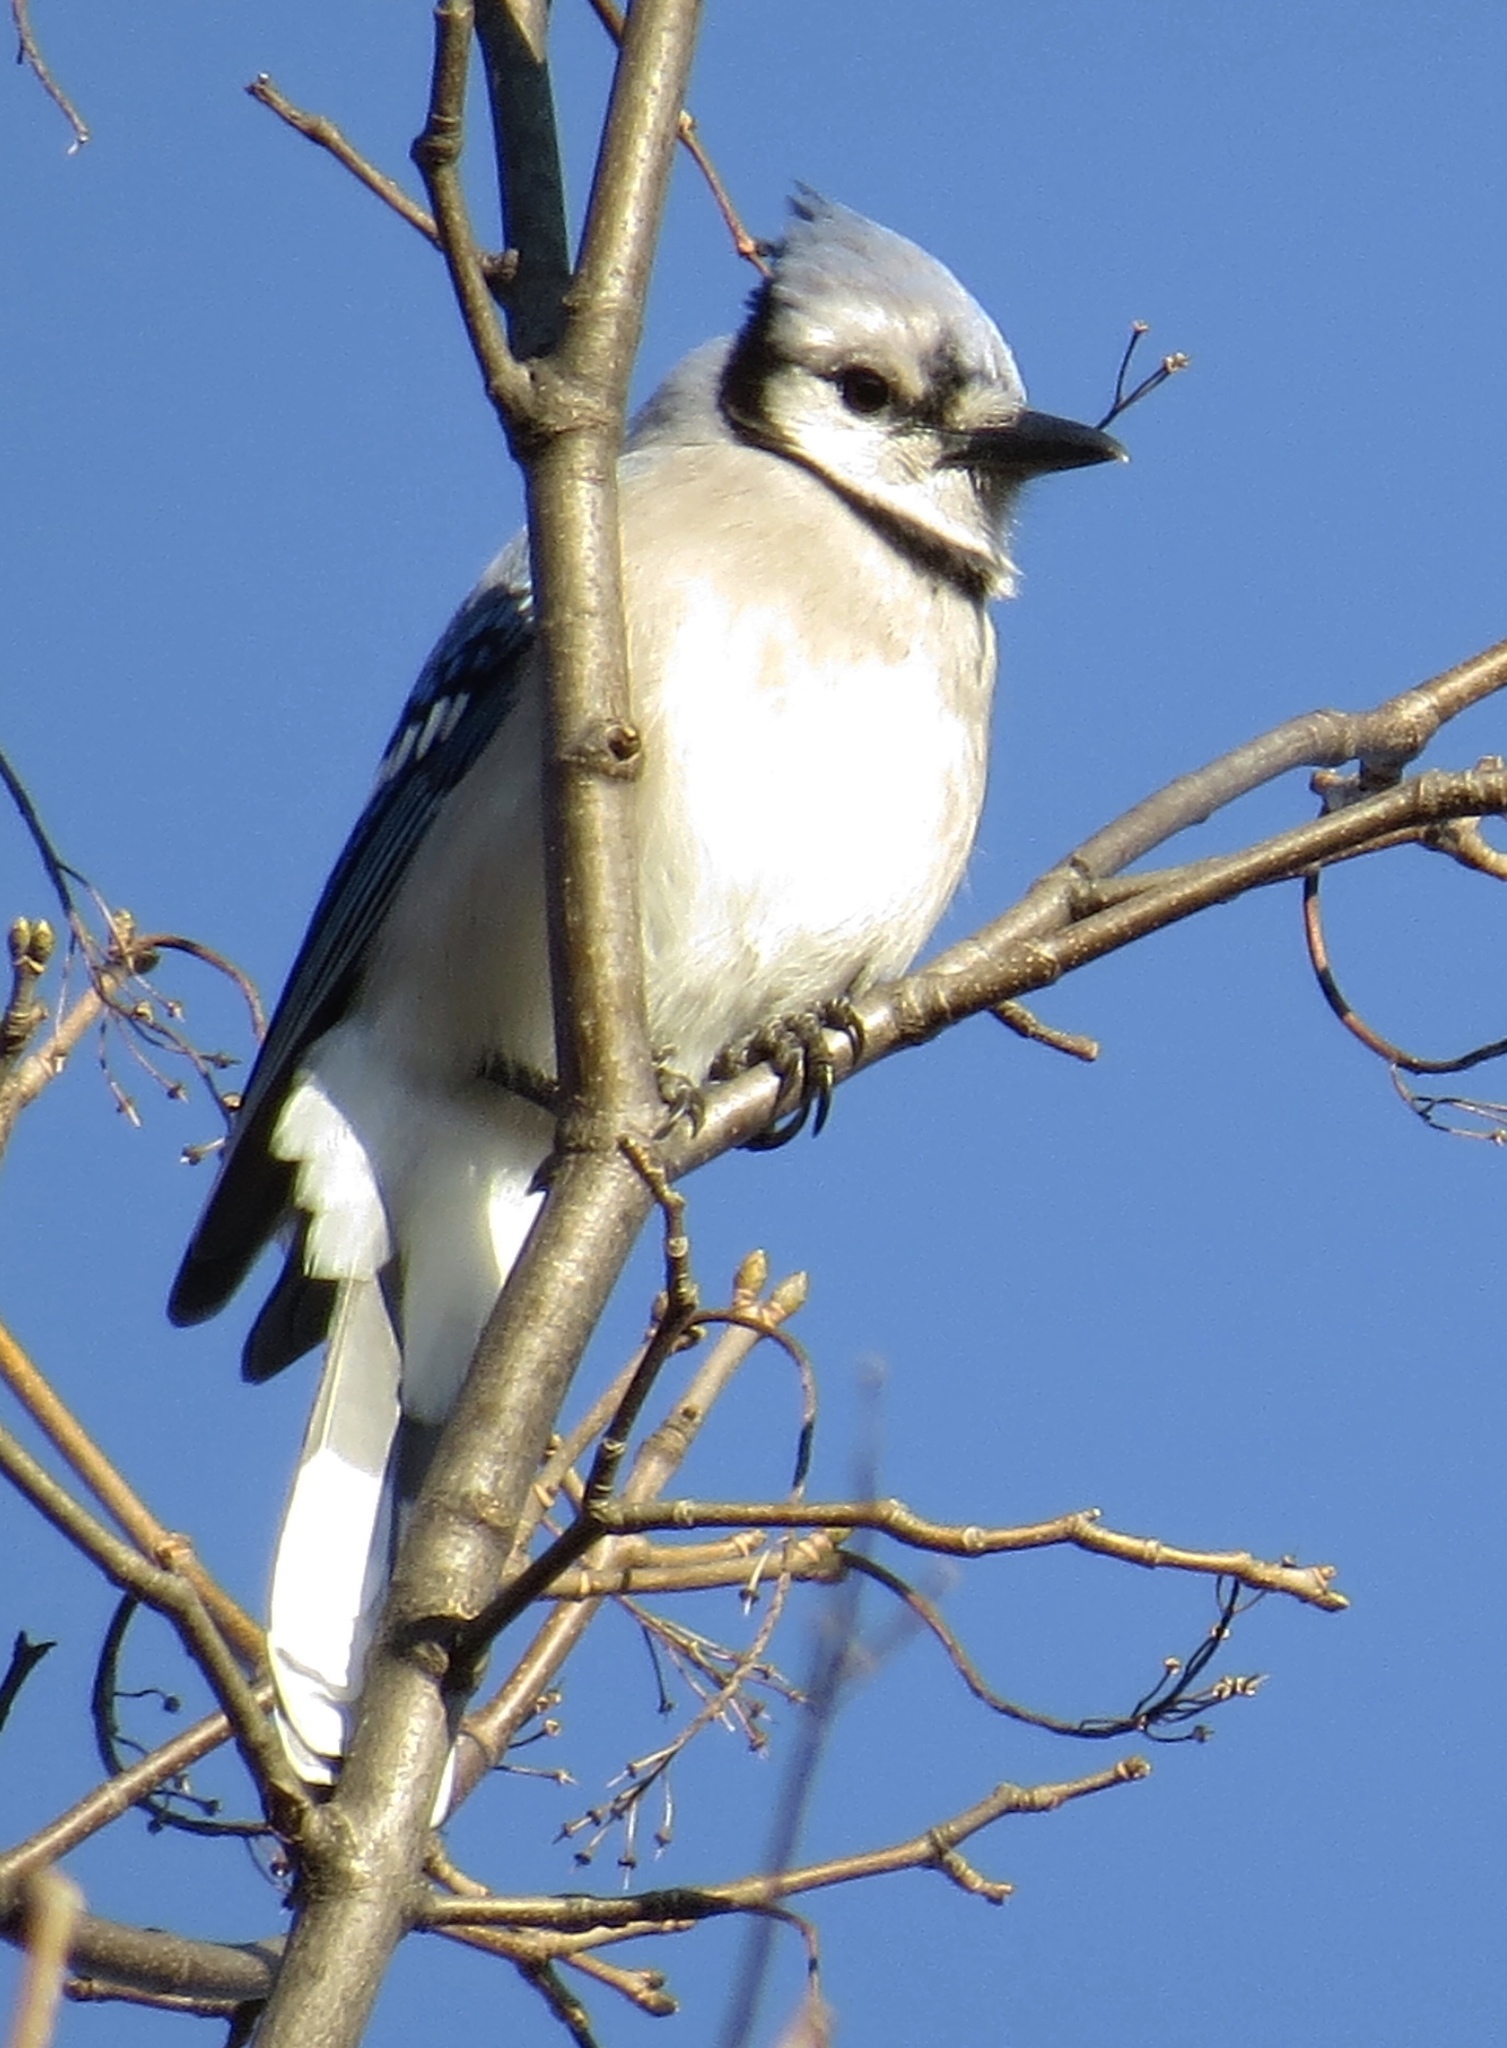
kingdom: Animalia
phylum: Chordata
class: Aves
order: Passeriformes
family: Corvidae
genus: Cyanocitta
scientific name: Cyanocitta cristata
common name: Blue jay
